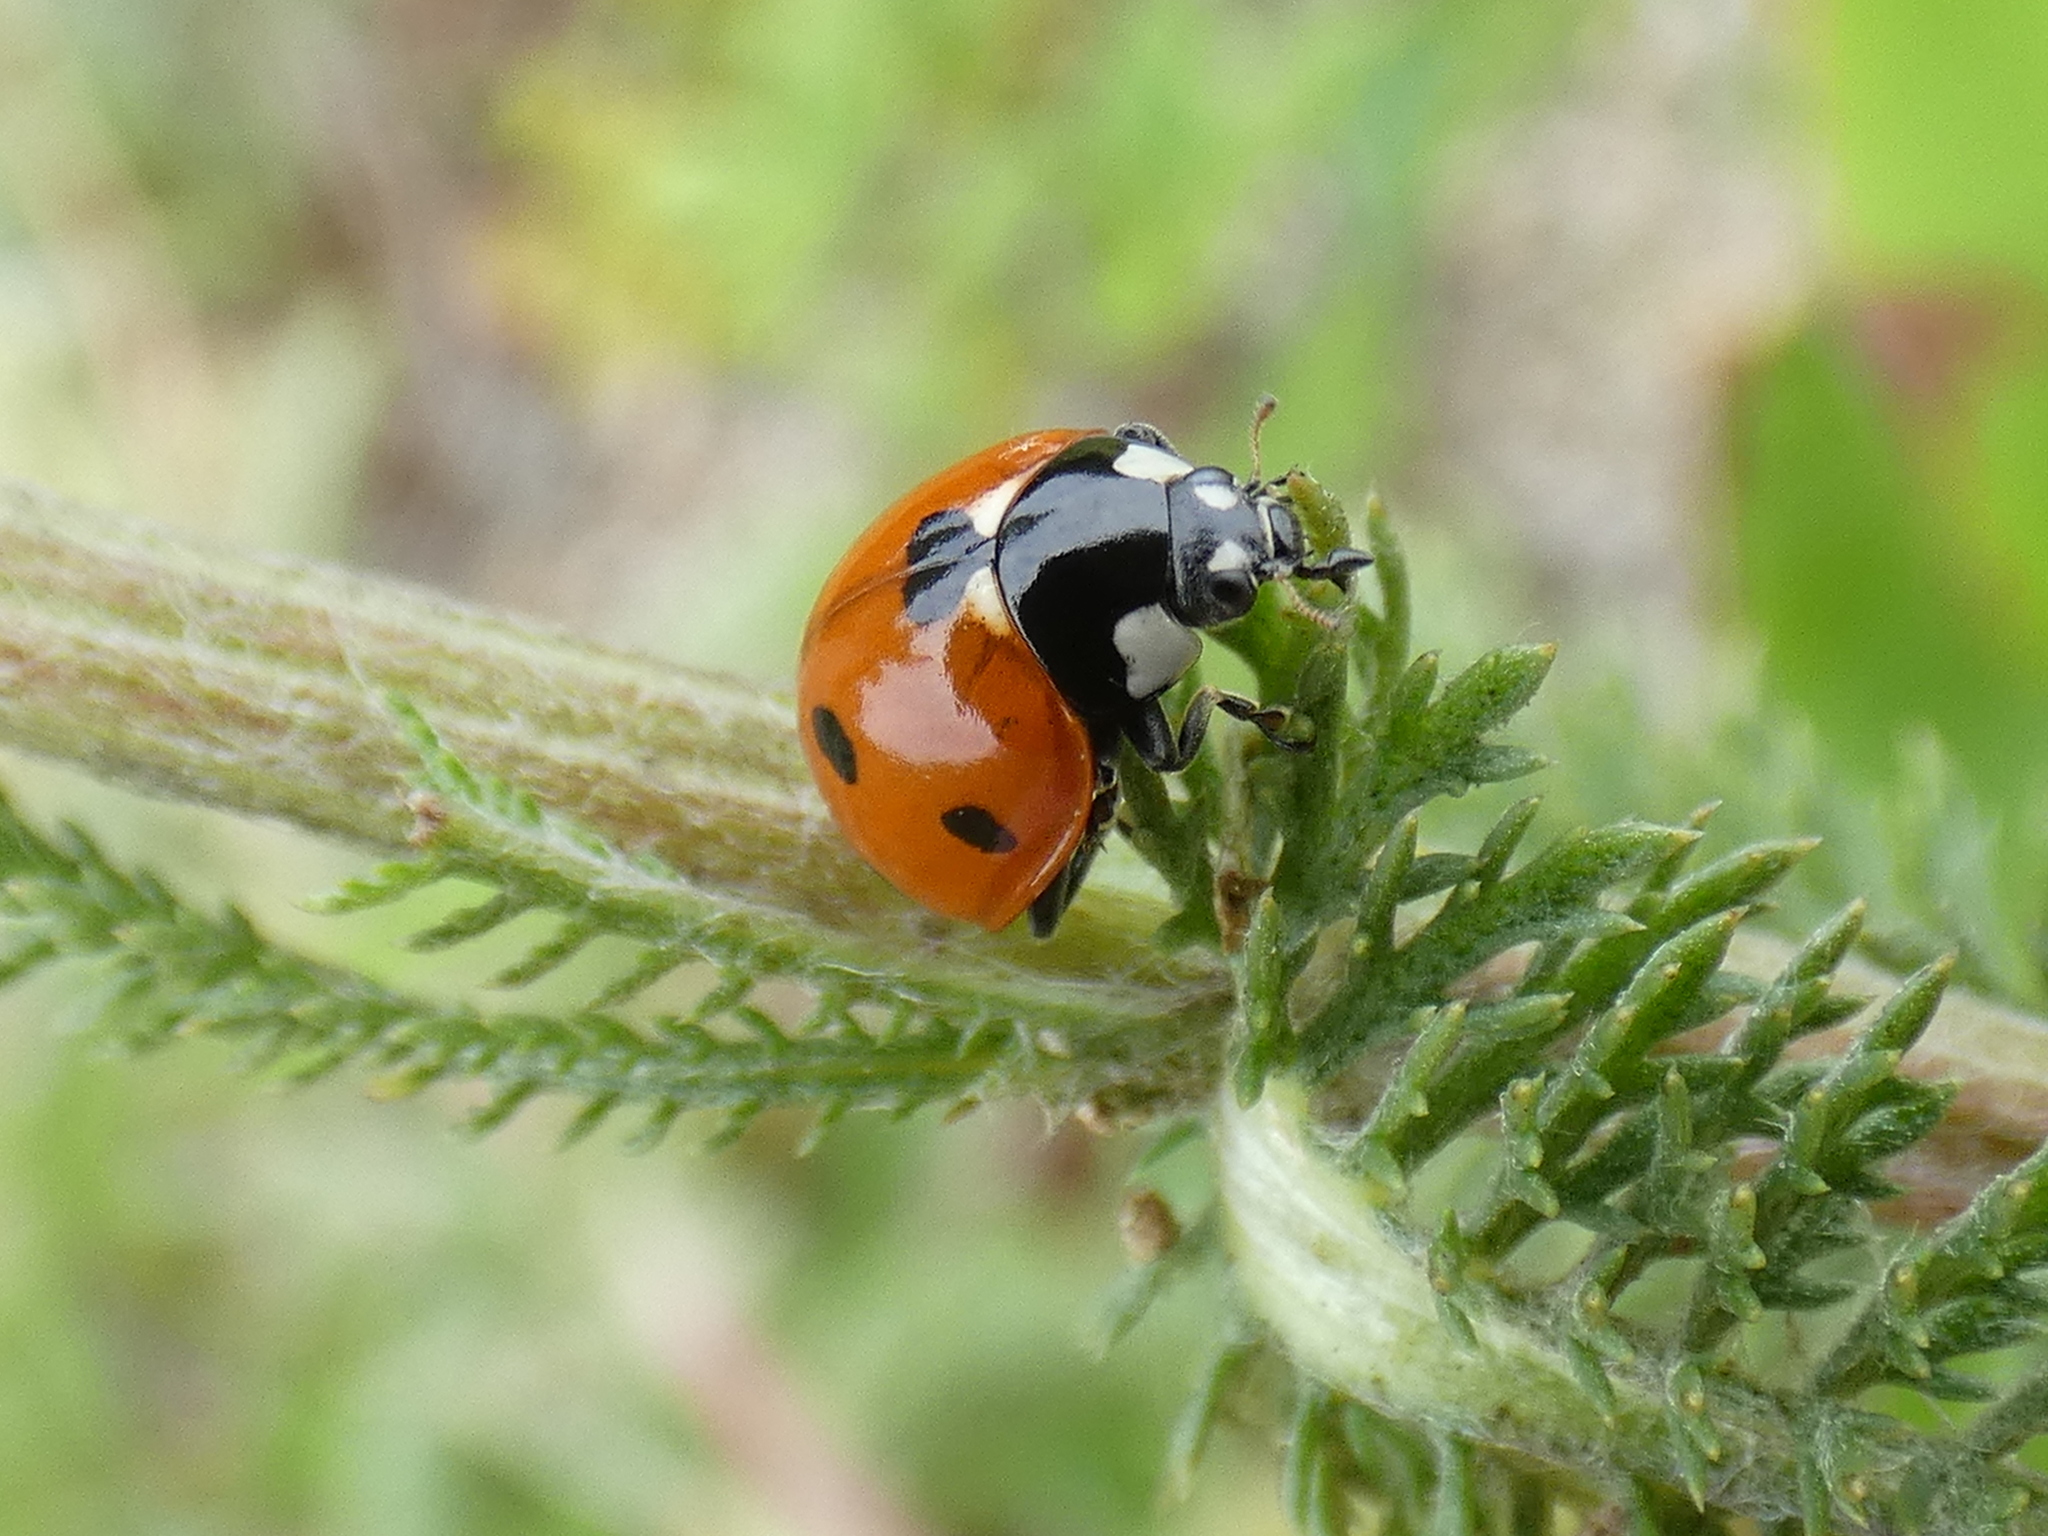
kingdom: Animalia
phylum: Arthropoda
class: Insecta
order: Coleoptera
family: Coccinellidae
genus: Coccinella
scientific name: Coccinella septempunctata
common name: Sevenspotted lady beetle
